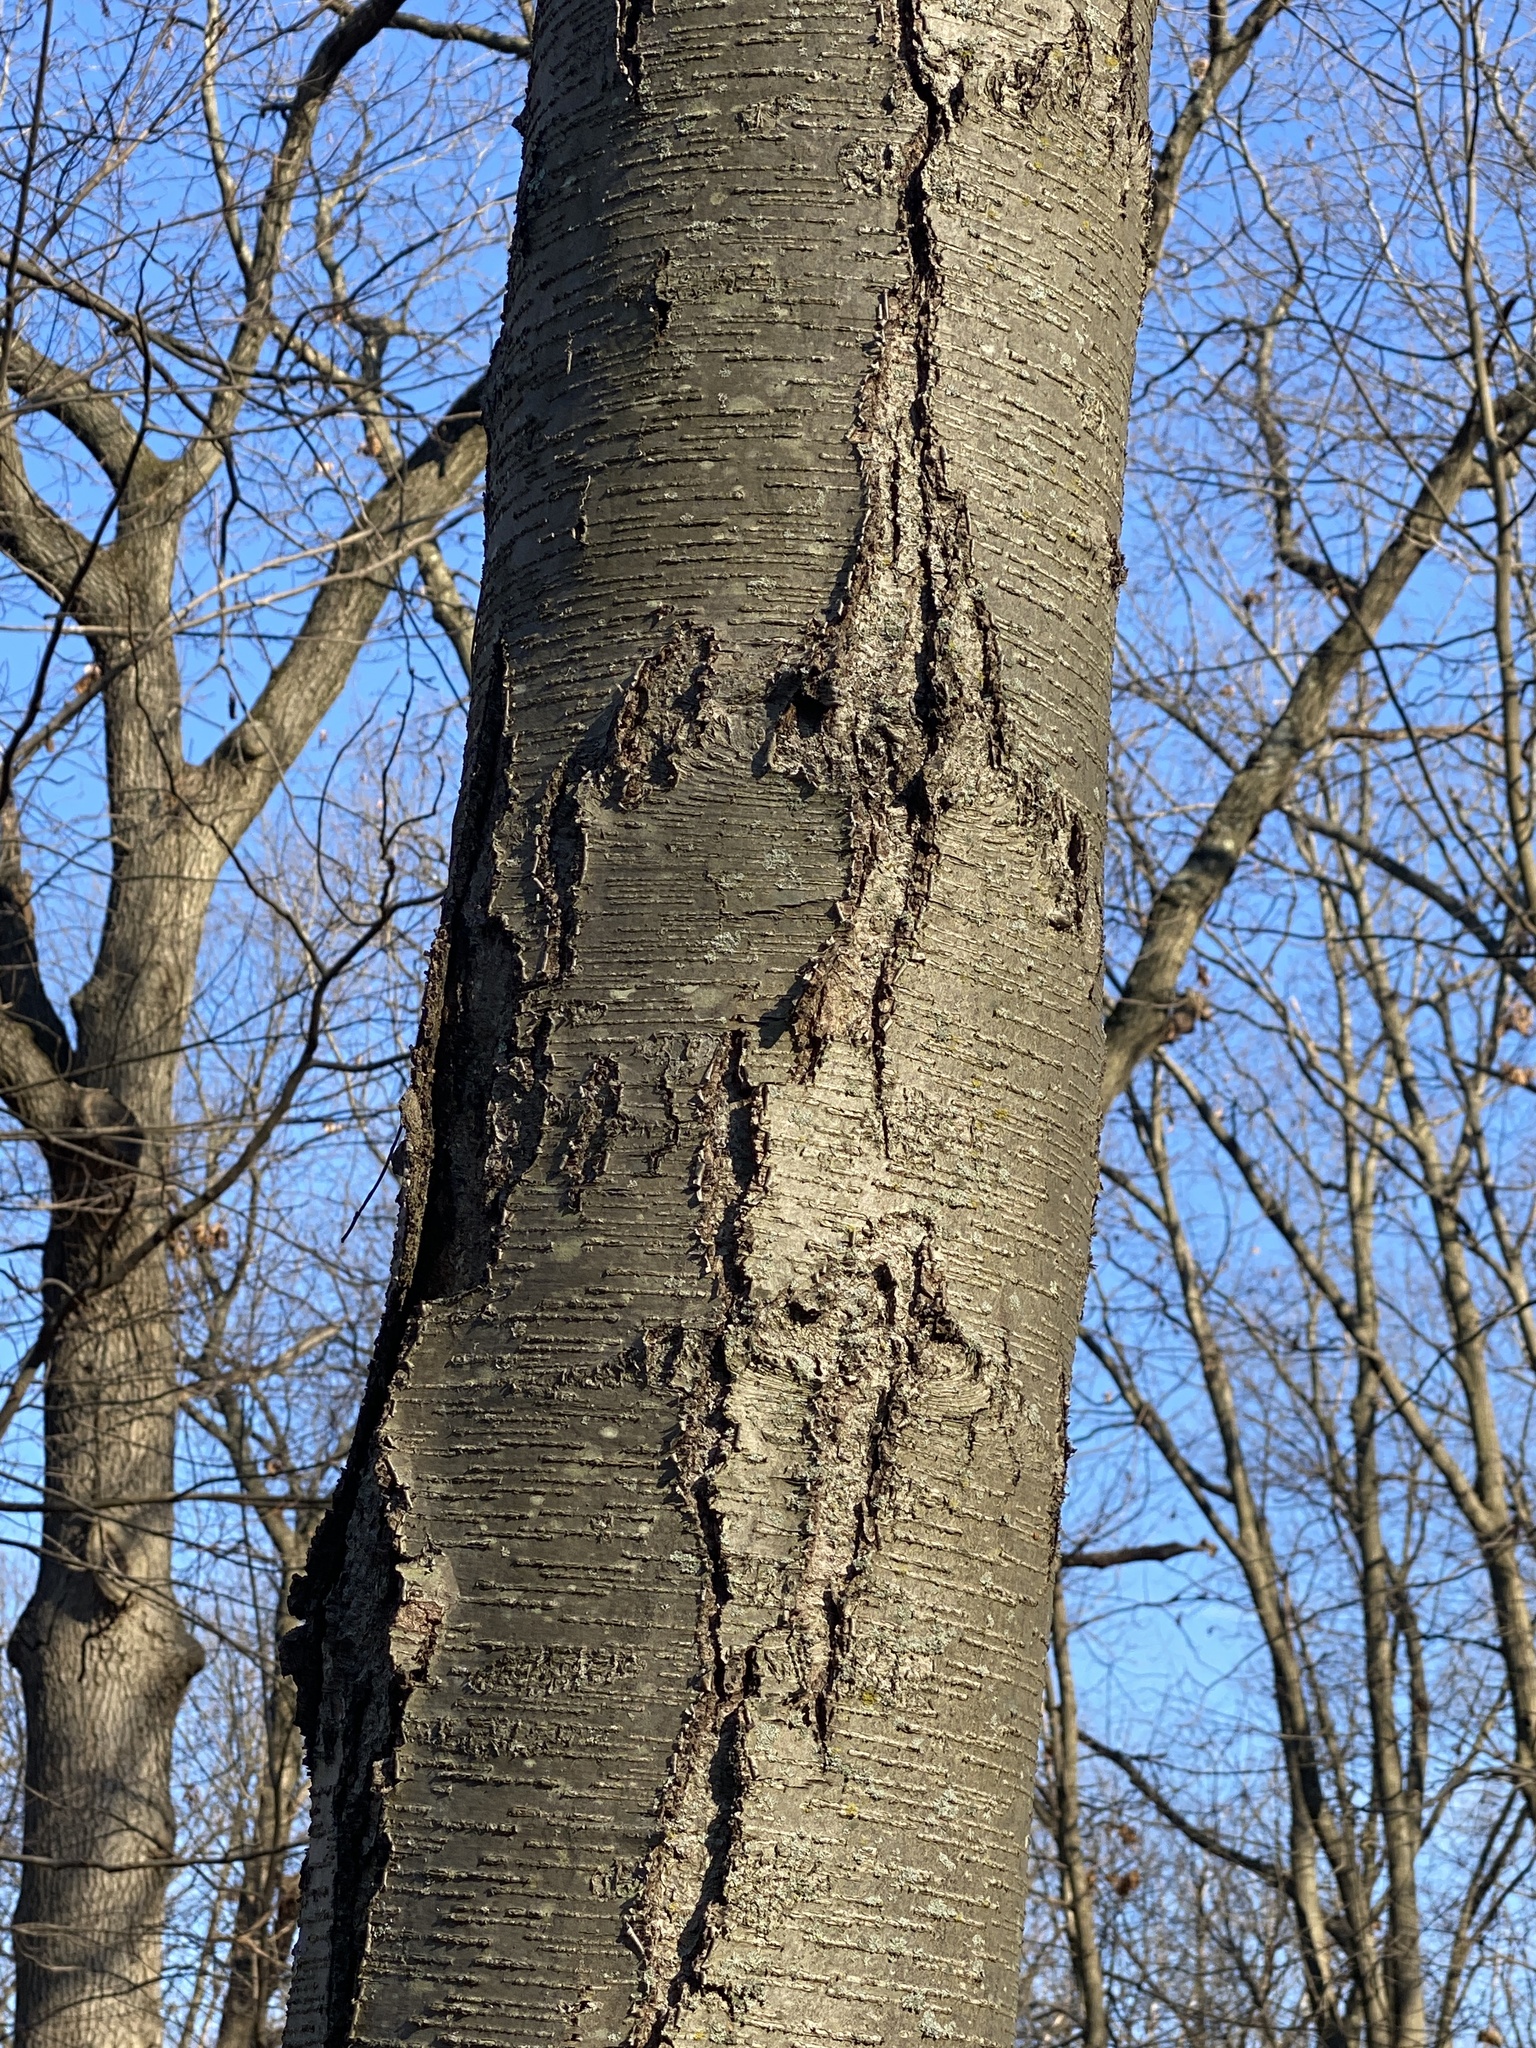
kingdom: Plantae
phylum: Tracheophyta
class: Magnoliopsida
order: Fagales
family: Betulaceae
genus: Betula
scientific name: Betula lenta
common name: Black birch
